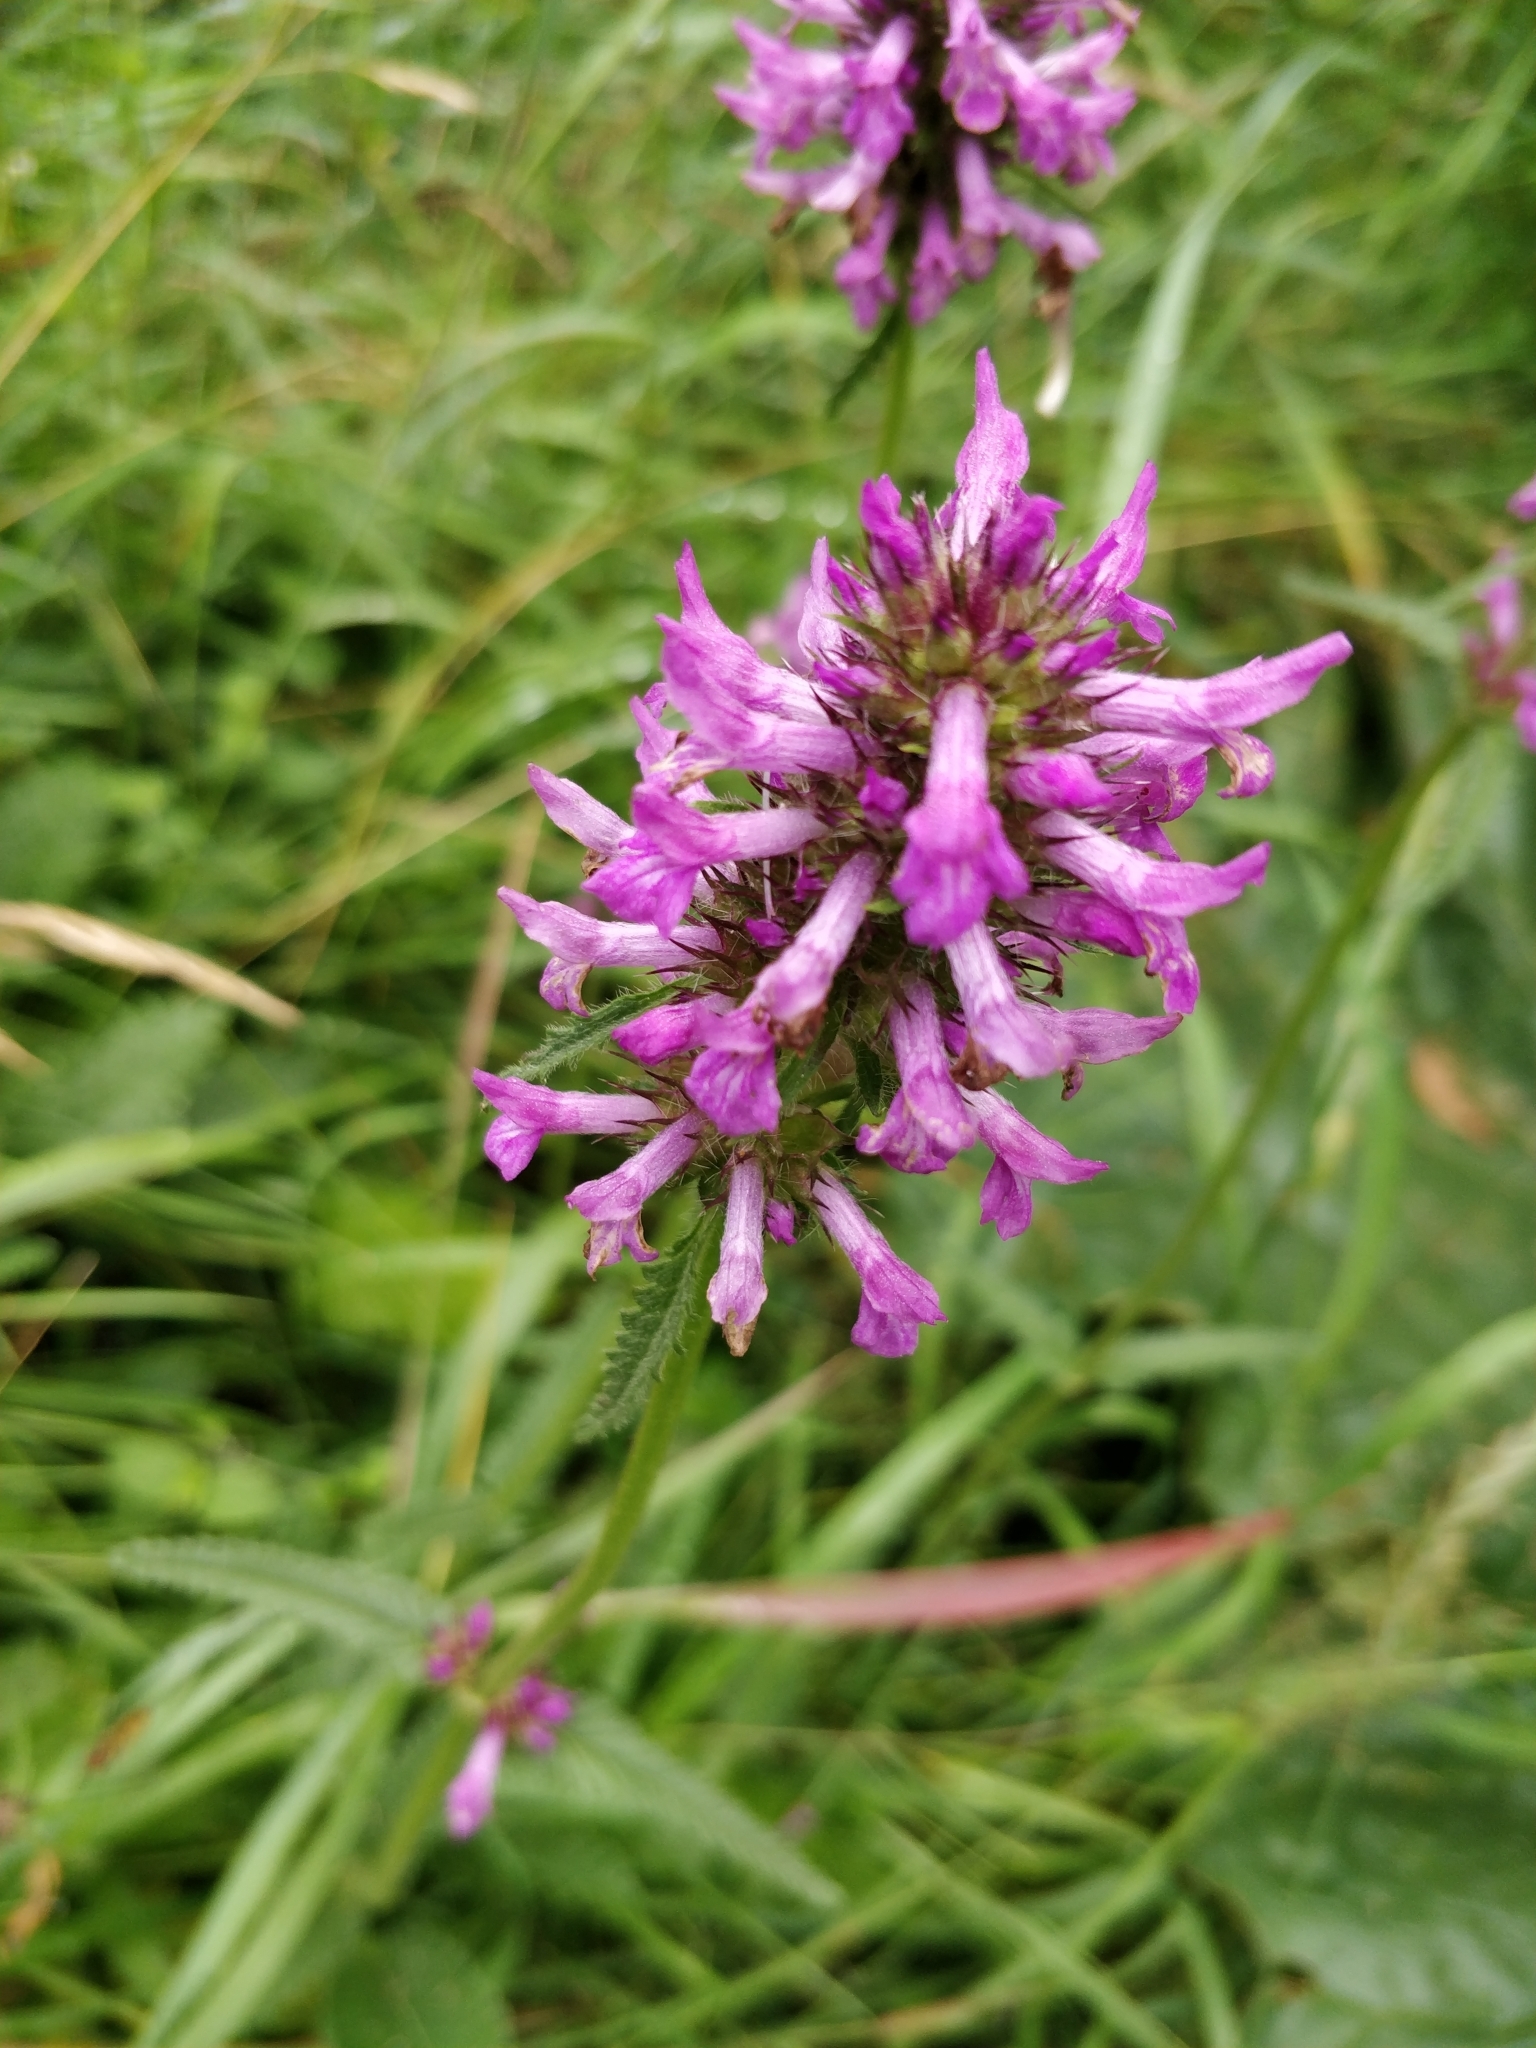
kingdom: Plantae
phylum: Tracheophyta
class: Magnoliopsida
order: Lamiales
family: Lamiaceae
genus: Betonica
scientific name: Betonica officinalis
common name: Bishop's-wort
